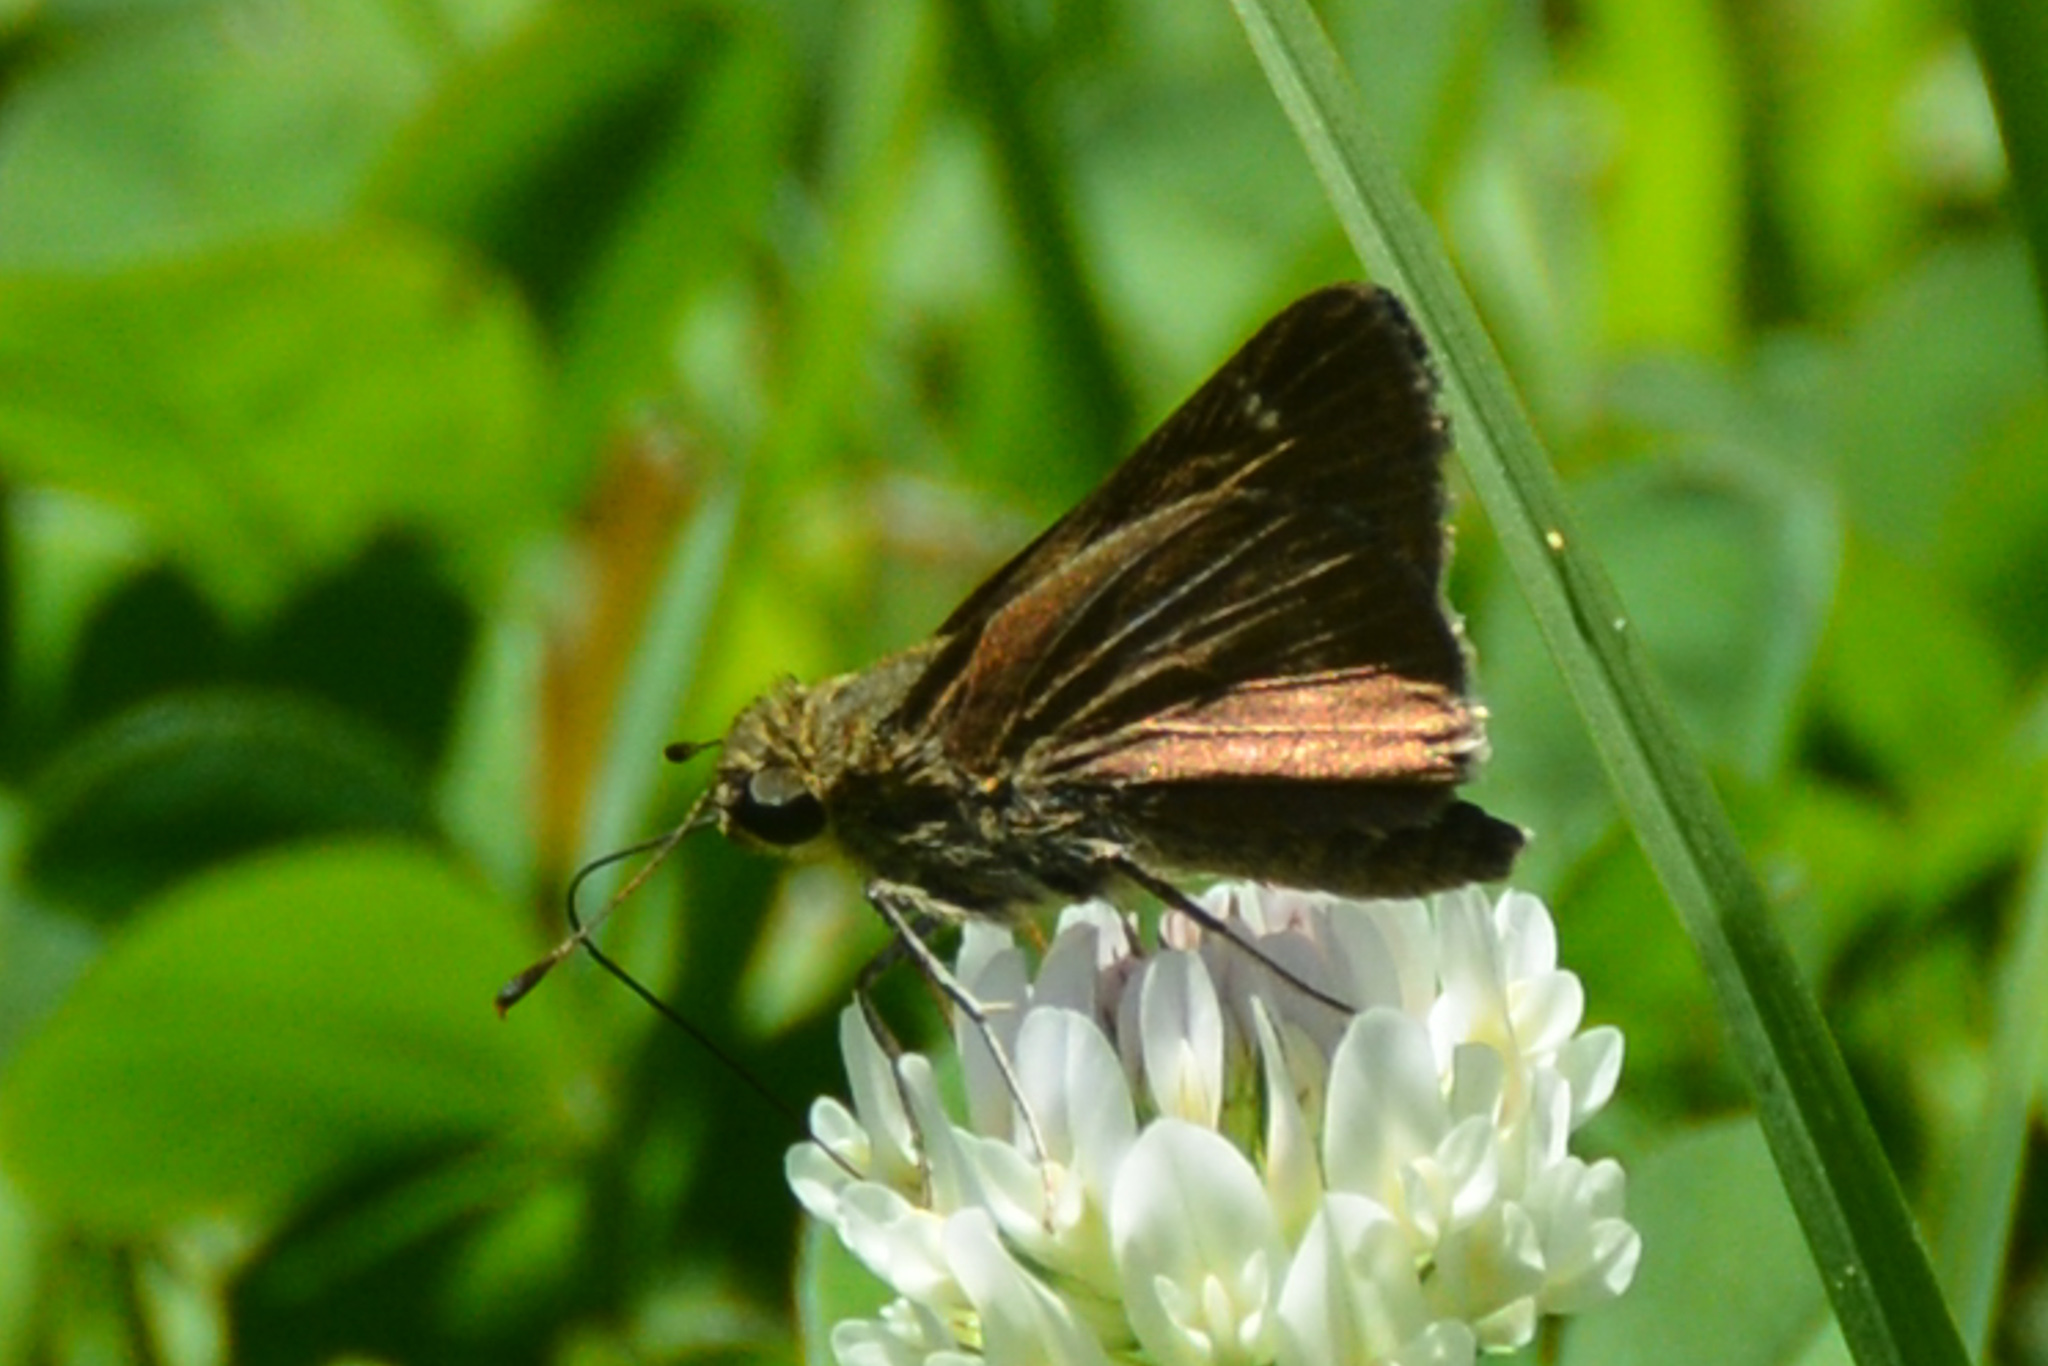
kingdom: Animalia
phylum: Arthropoda
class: Insecta
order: Lepidoptera
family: Hesperiidae
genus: Euphyes
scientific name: Euphyes vestris
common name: Dun skipper
